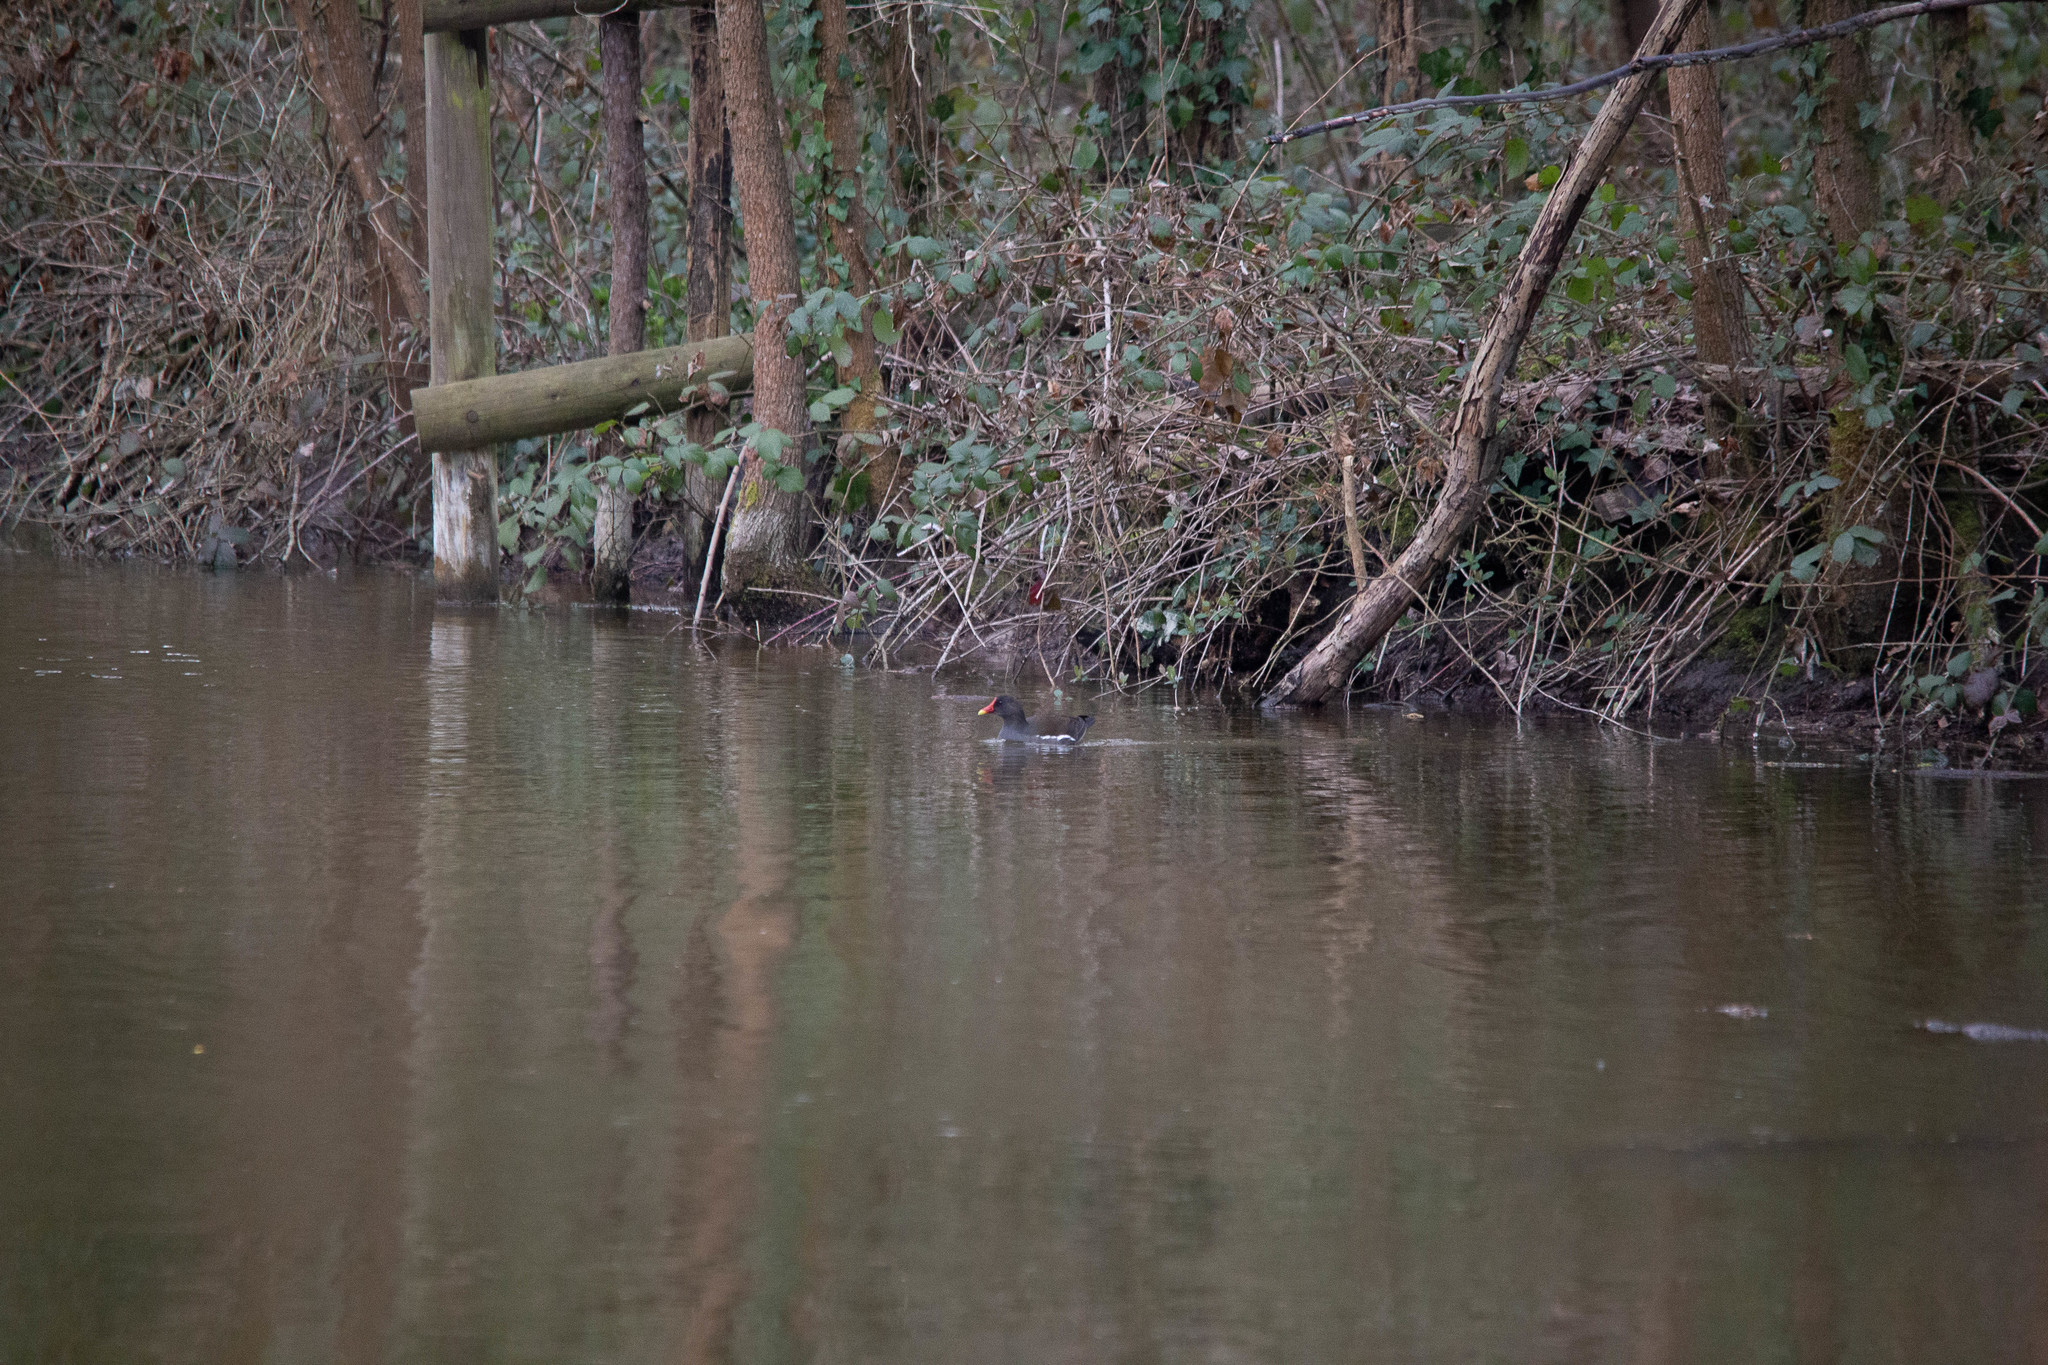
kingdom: Animalia
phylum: Chordata
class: Aves
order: Gruiformes
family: Rallidae
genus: Gallinula
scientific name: Gallinula chloropus
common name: Common moorhen
